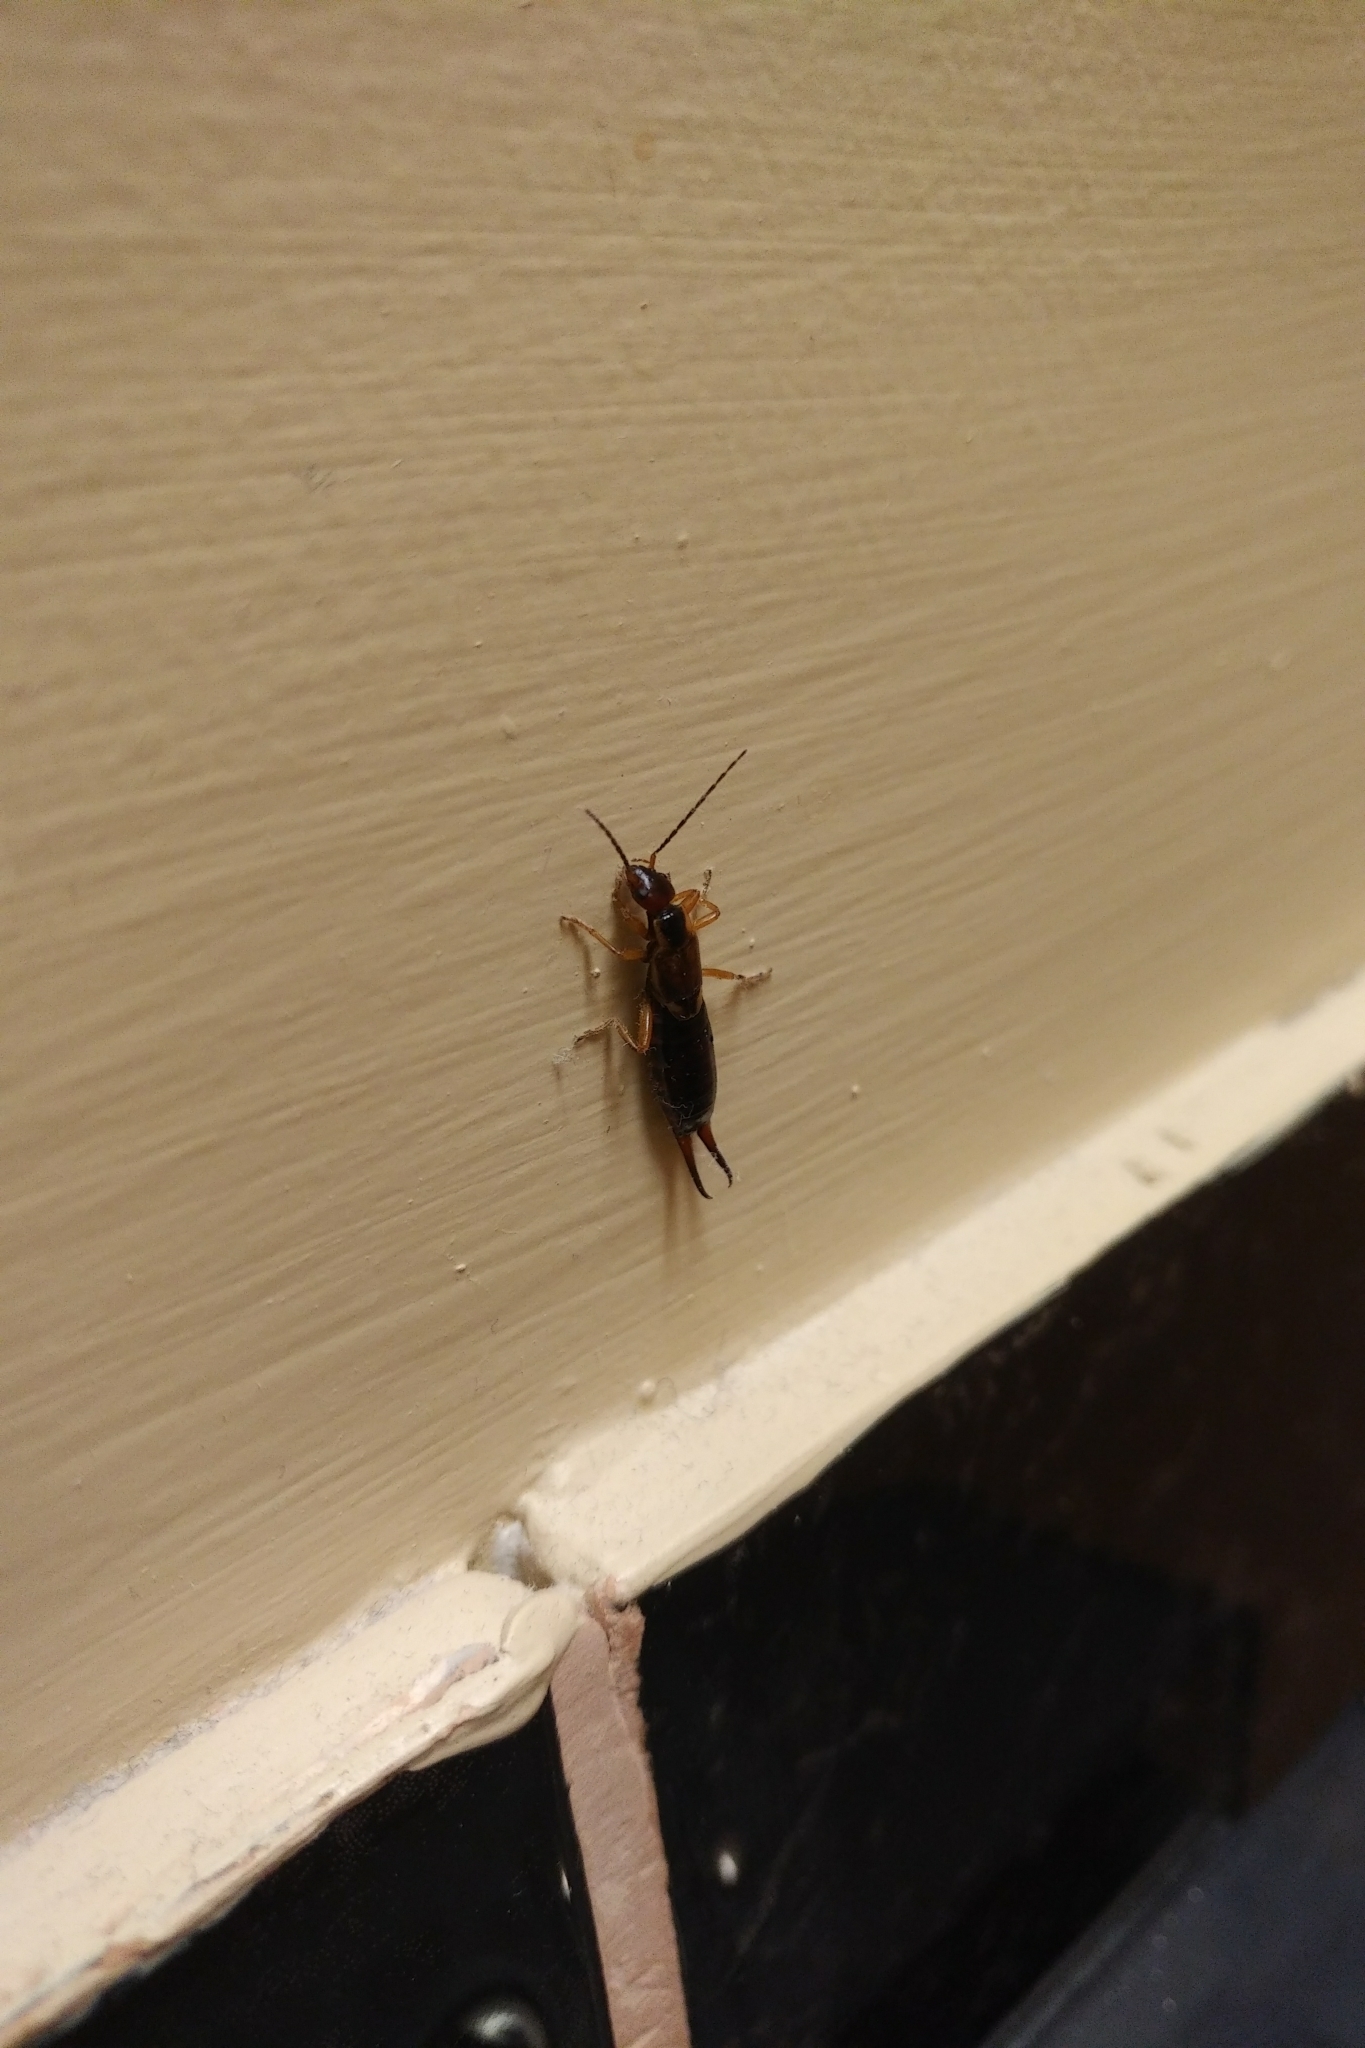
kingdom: Animalia
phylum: Arthropoda
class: Insecta
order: Dermaptera
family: Forficulidae
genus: Forficula
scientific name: Forficula
